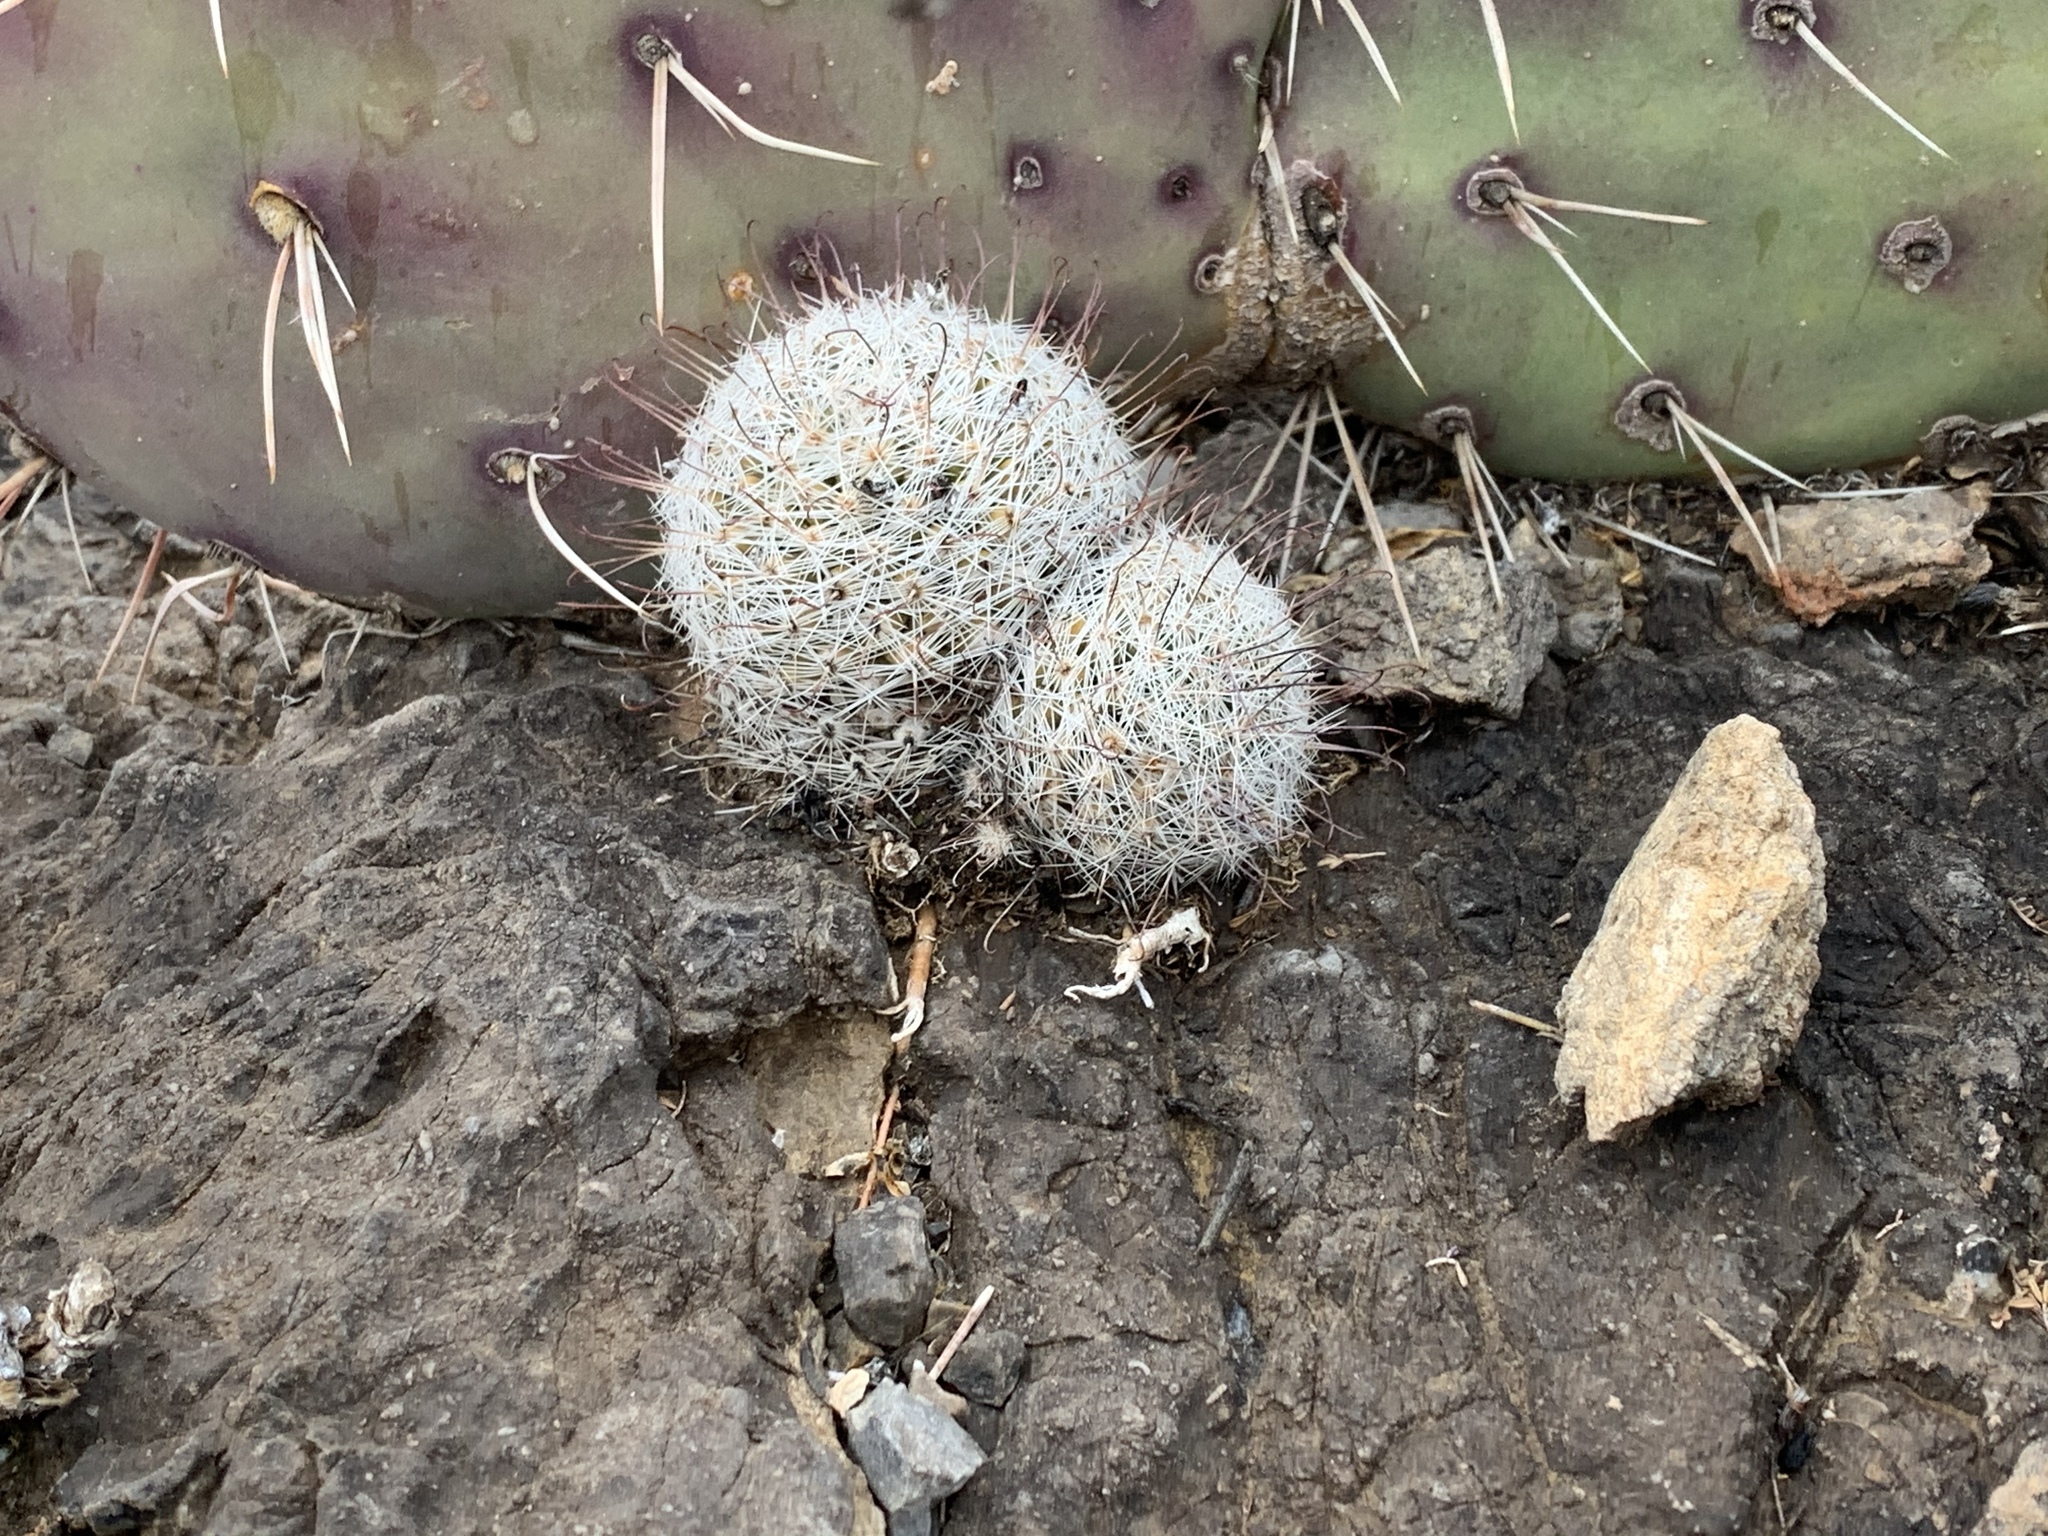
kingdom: Plantae
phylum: Tracheophyta
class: Magnoliopsida
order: Caryophyllales
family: Cactaceae
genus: Cochemiea
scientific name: Cochemiea grahamii
